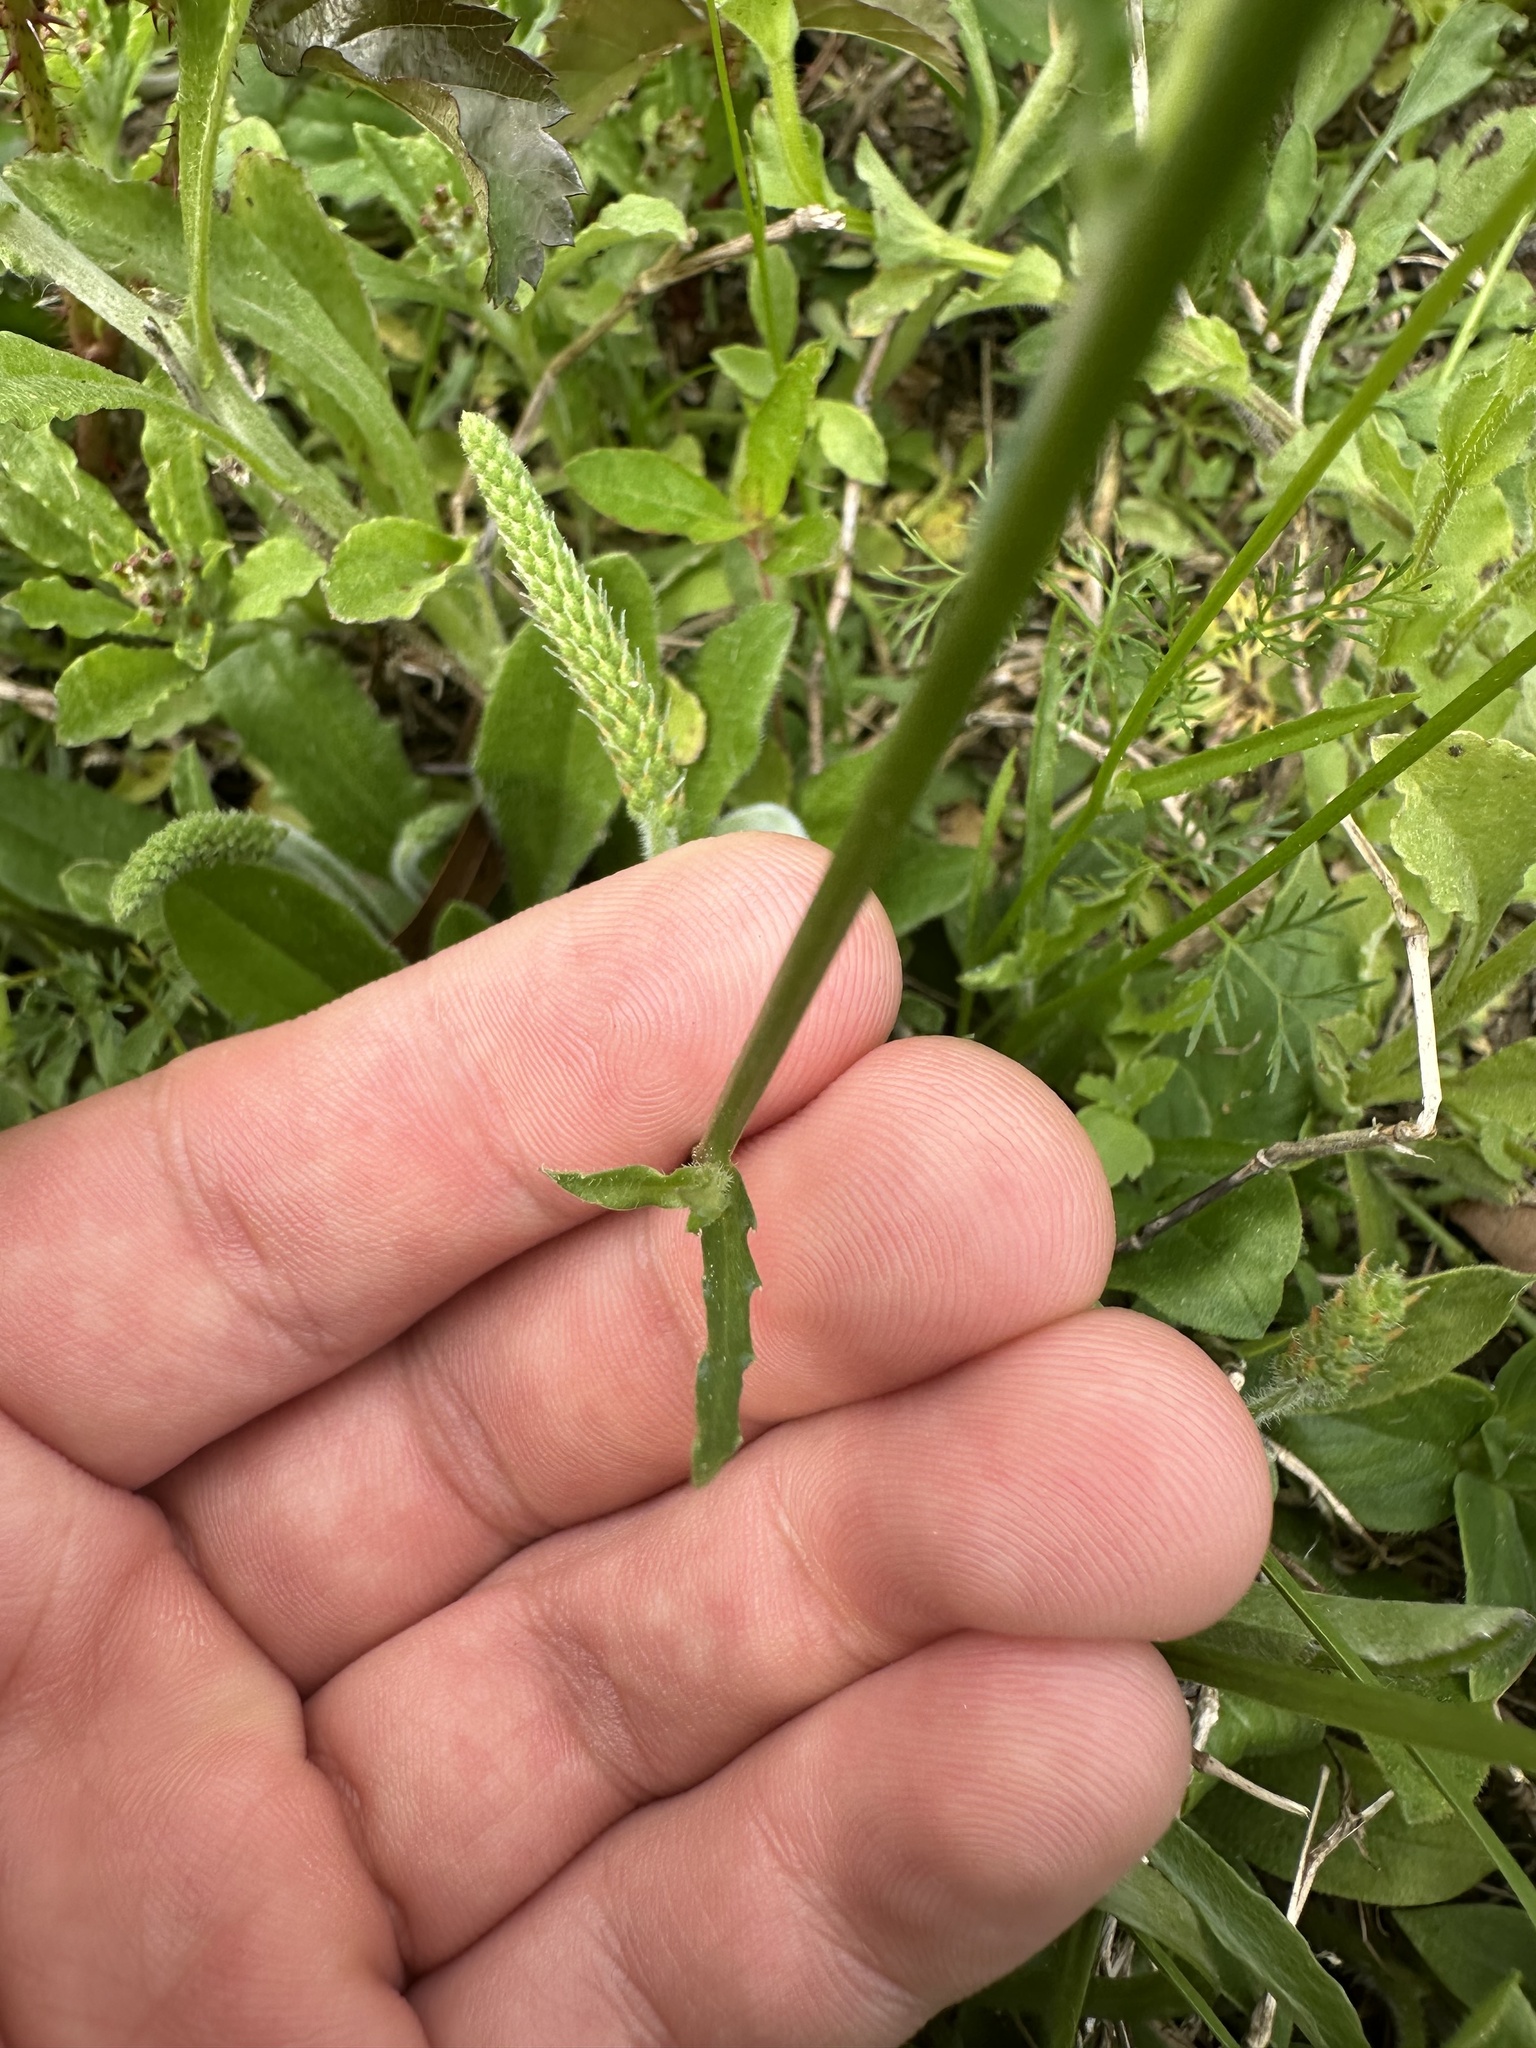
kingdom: Plantae
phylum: Tracheophyta
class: Magnoliopsida
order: Asterales
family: Campanulaceae
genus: Wahlenbergia
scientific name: Wahlenbergia marginata
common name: Southern rockbell
